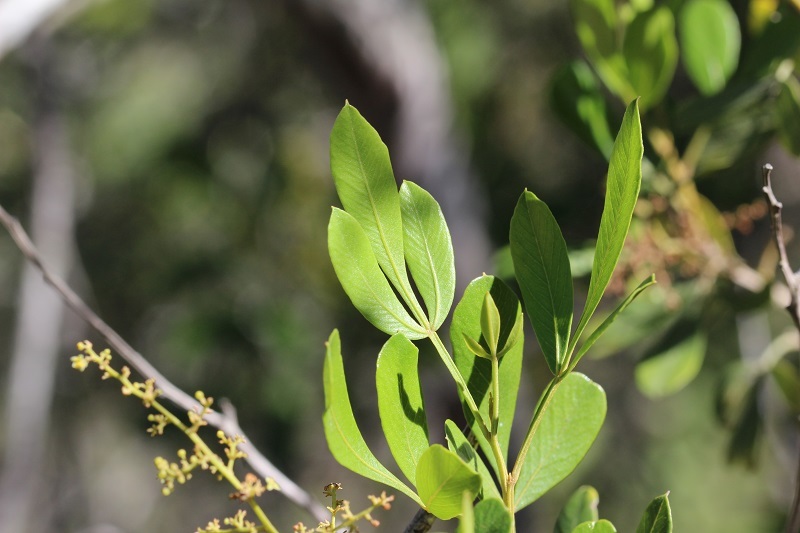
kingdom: Plantae
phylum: Tracheophyta
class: Magnoliopsida
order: Sapindales
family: Anacardiaceae
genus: Searsia
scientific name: Searsia pallens
